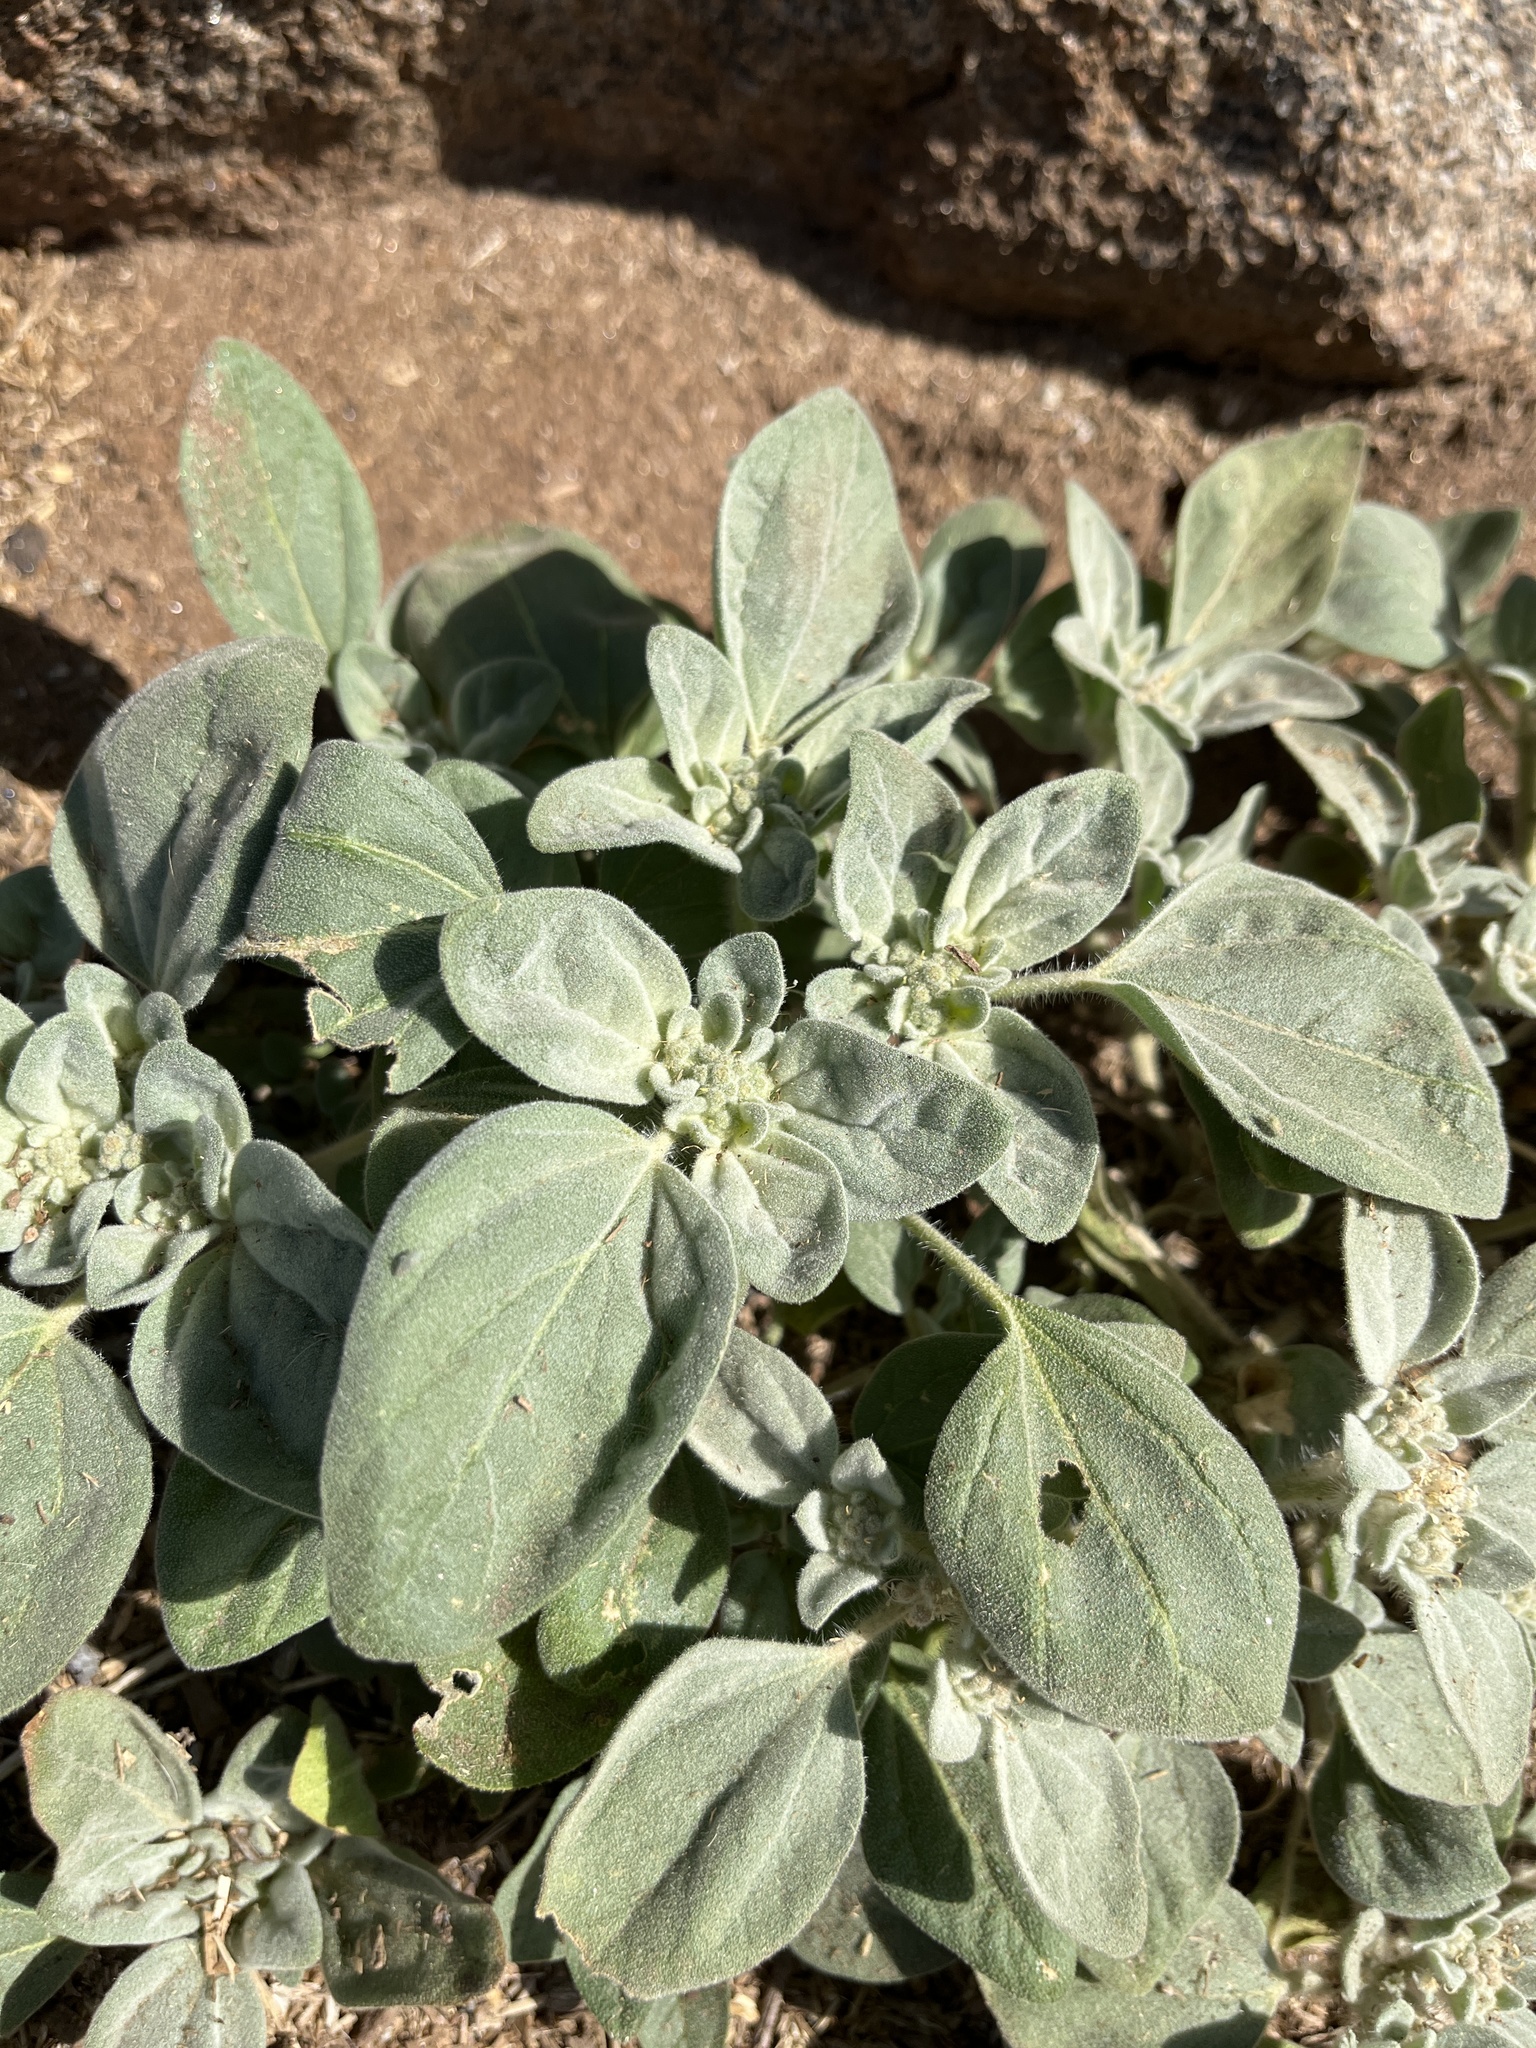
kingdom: Plantae
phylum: Tracheophyta
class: Magnoliopsida
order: Malpighiales
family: Euphorbiaceae
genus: Croton
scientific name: Croton setiger
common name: Dove weed
